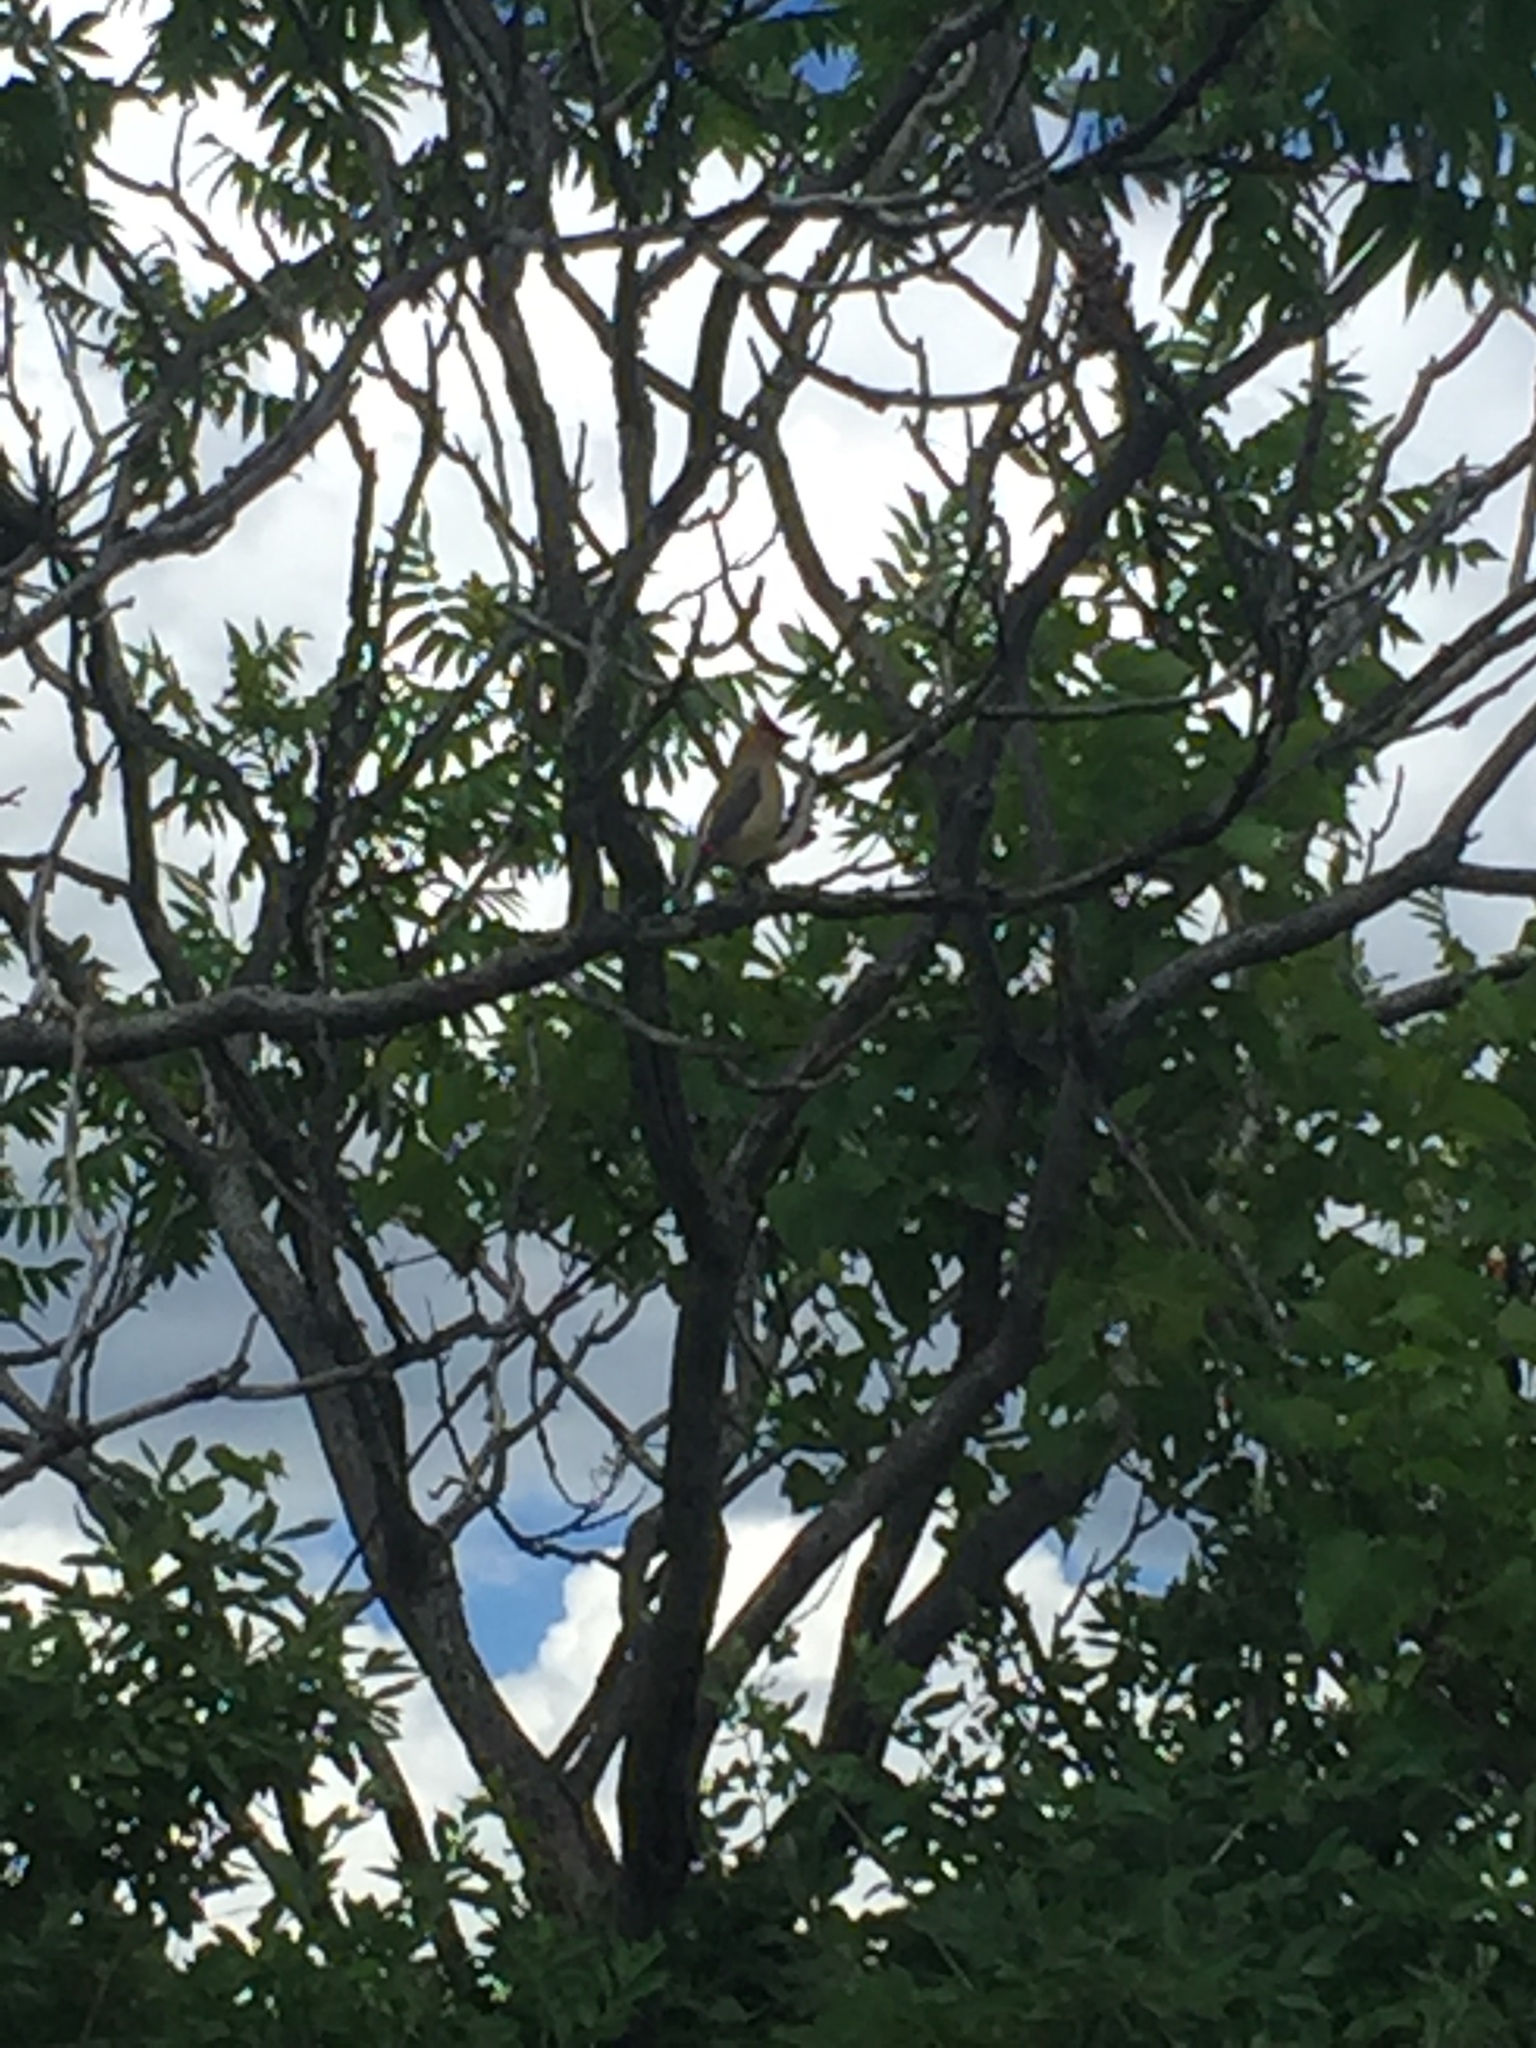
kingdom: Animalia
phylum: Chordata
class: Aves
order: Passeriformes
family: Bombycillidae
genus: Bombycilla
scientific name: Bombycilla cedrorum
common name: Cedar waxwing
